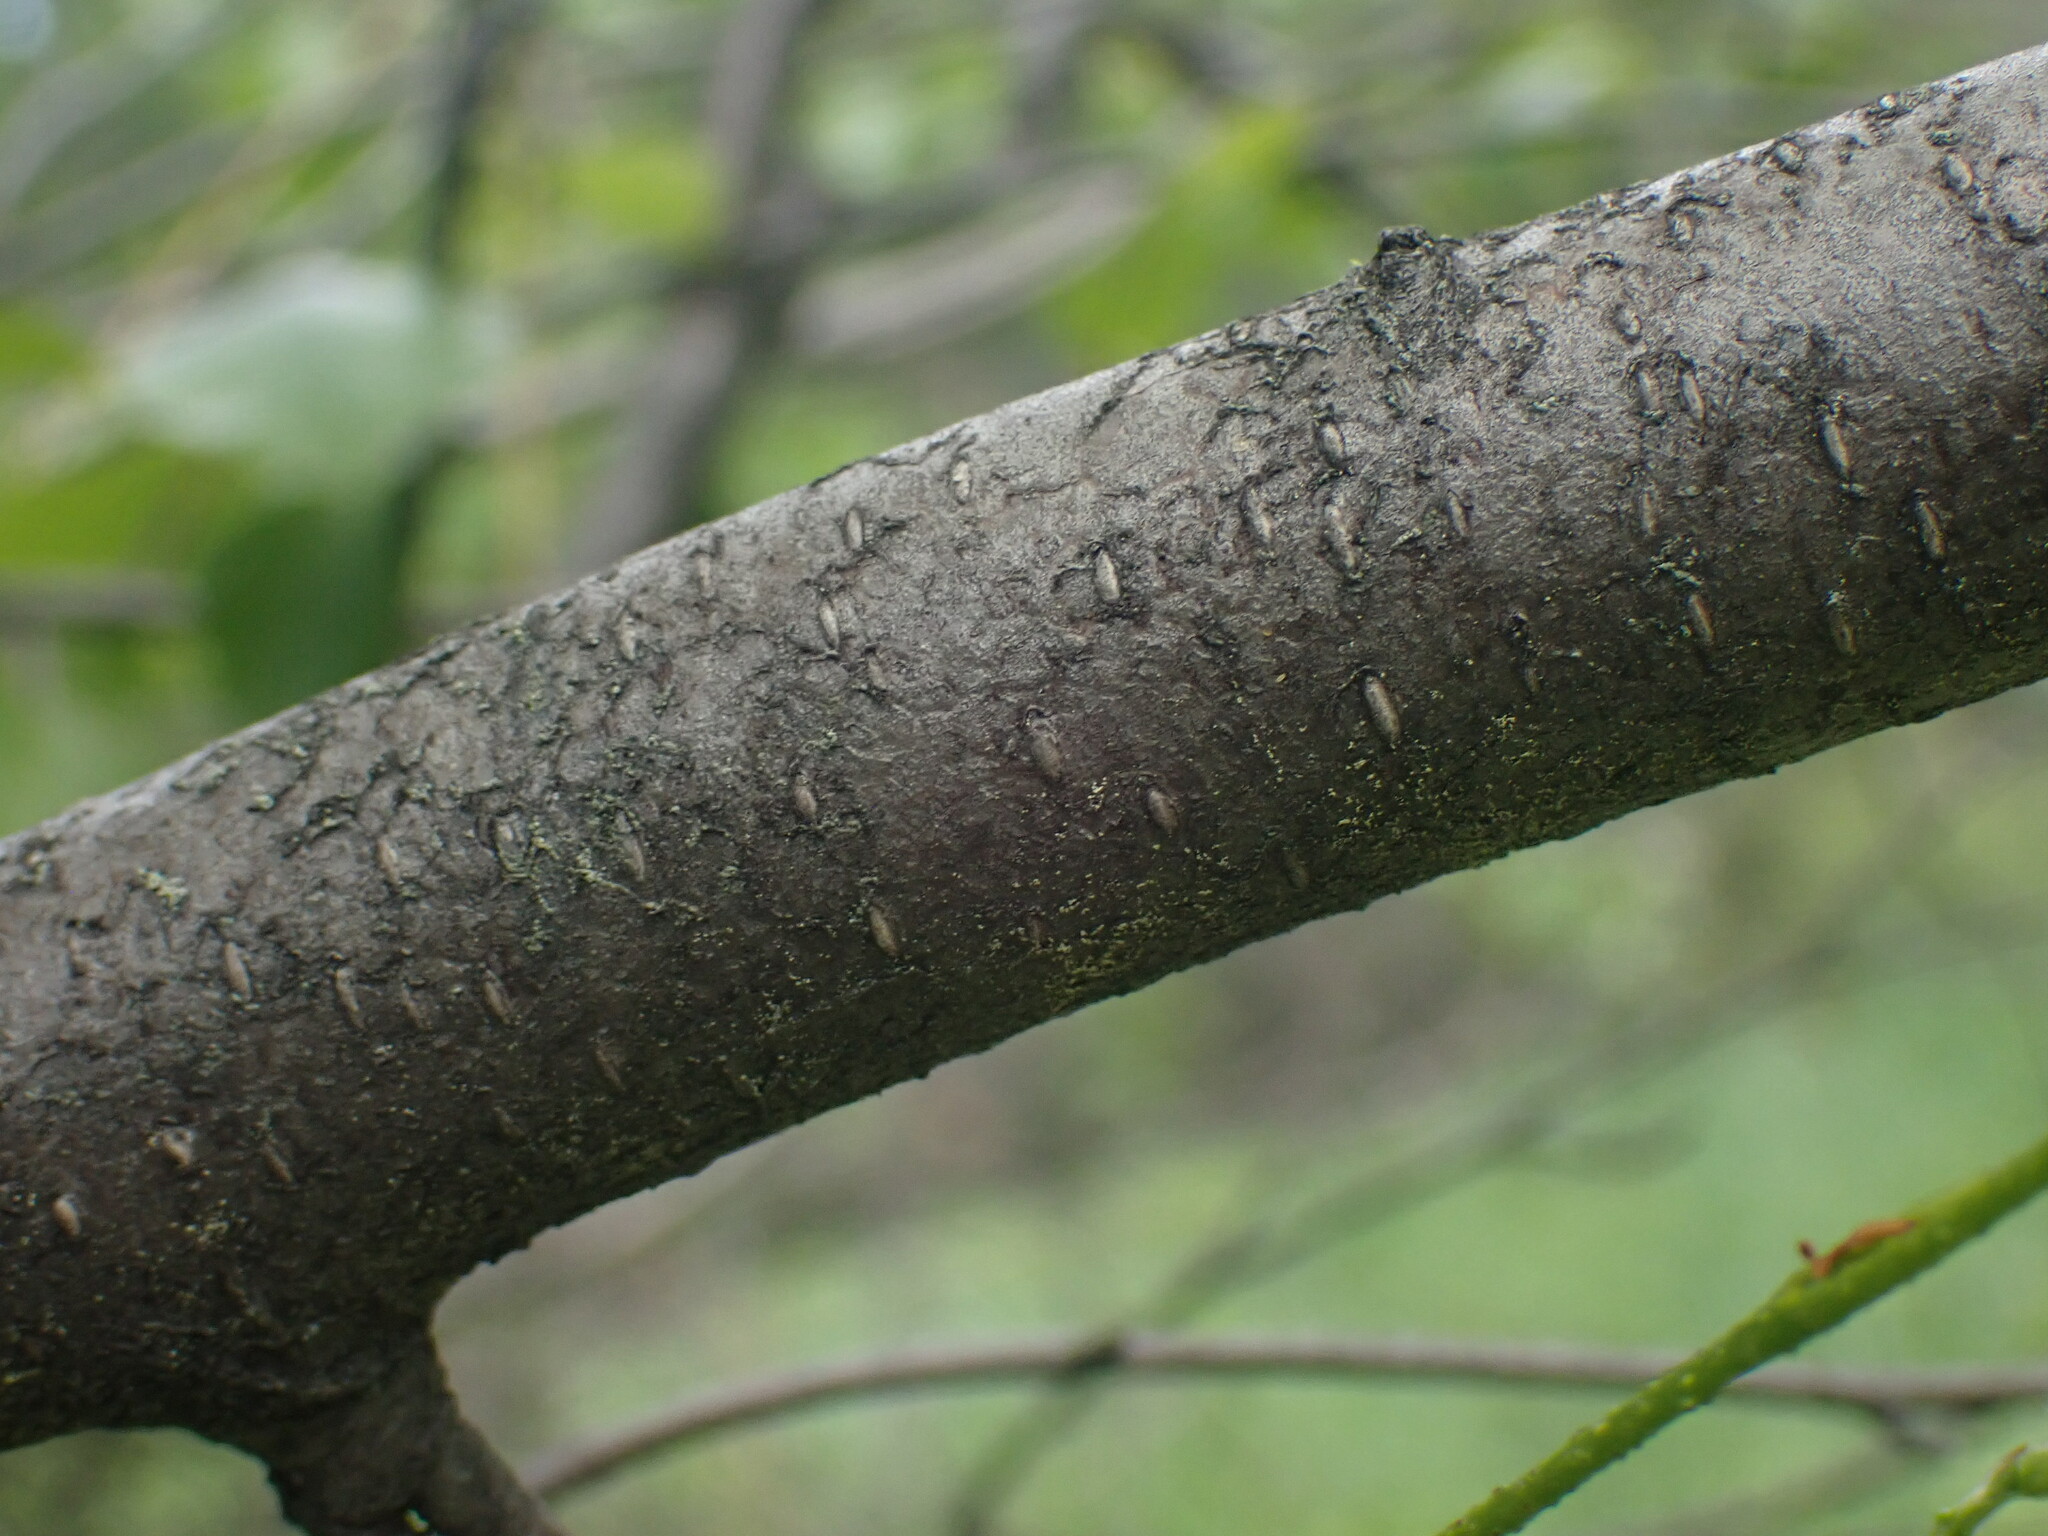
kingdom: Plantae
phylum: Tracheophyta
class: Magnoliopsida
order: Fagales
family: Betulaceae
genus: Betula
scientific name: Betula occidentalis
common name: River birch
